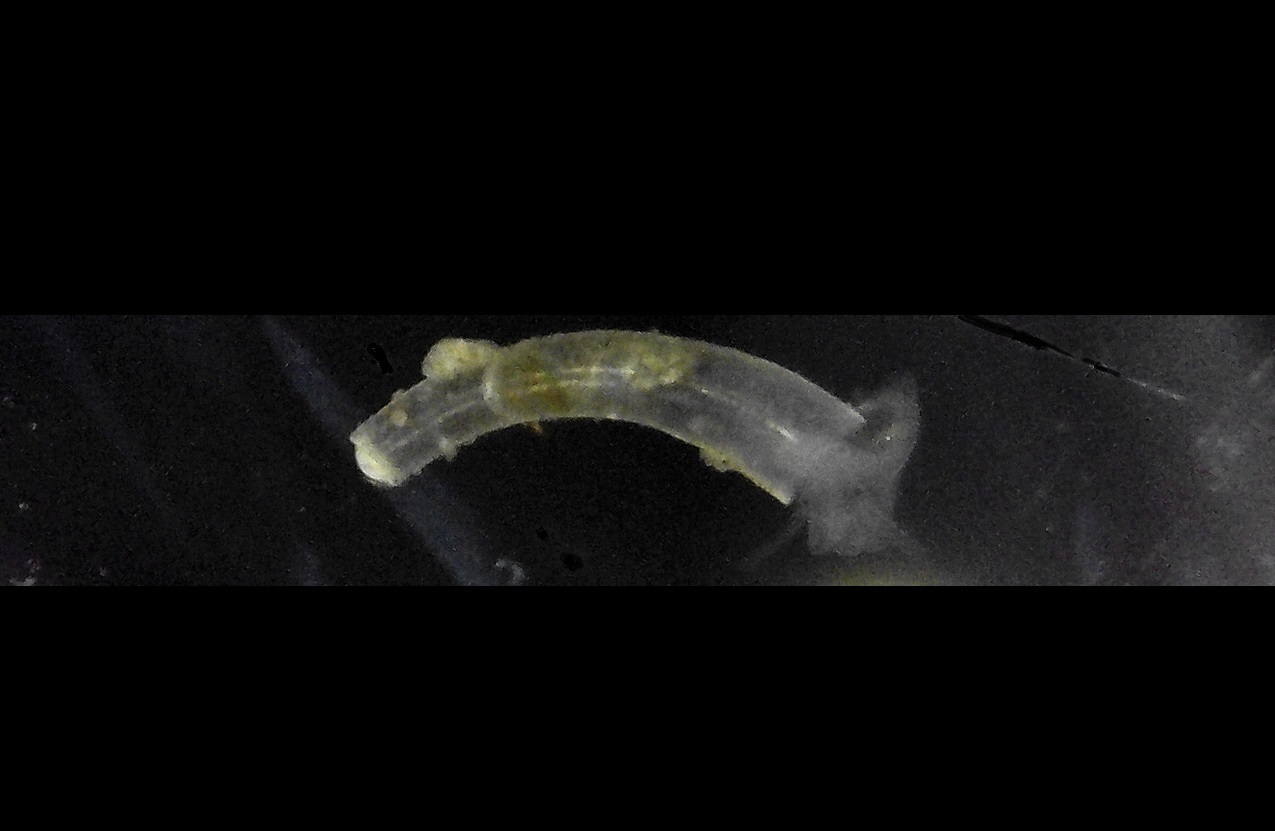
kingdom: Animalia
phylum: Mollusca
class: Gastropoda
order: Littorinimorpha
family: Caecidae
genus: Caecum
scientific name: Caecum
